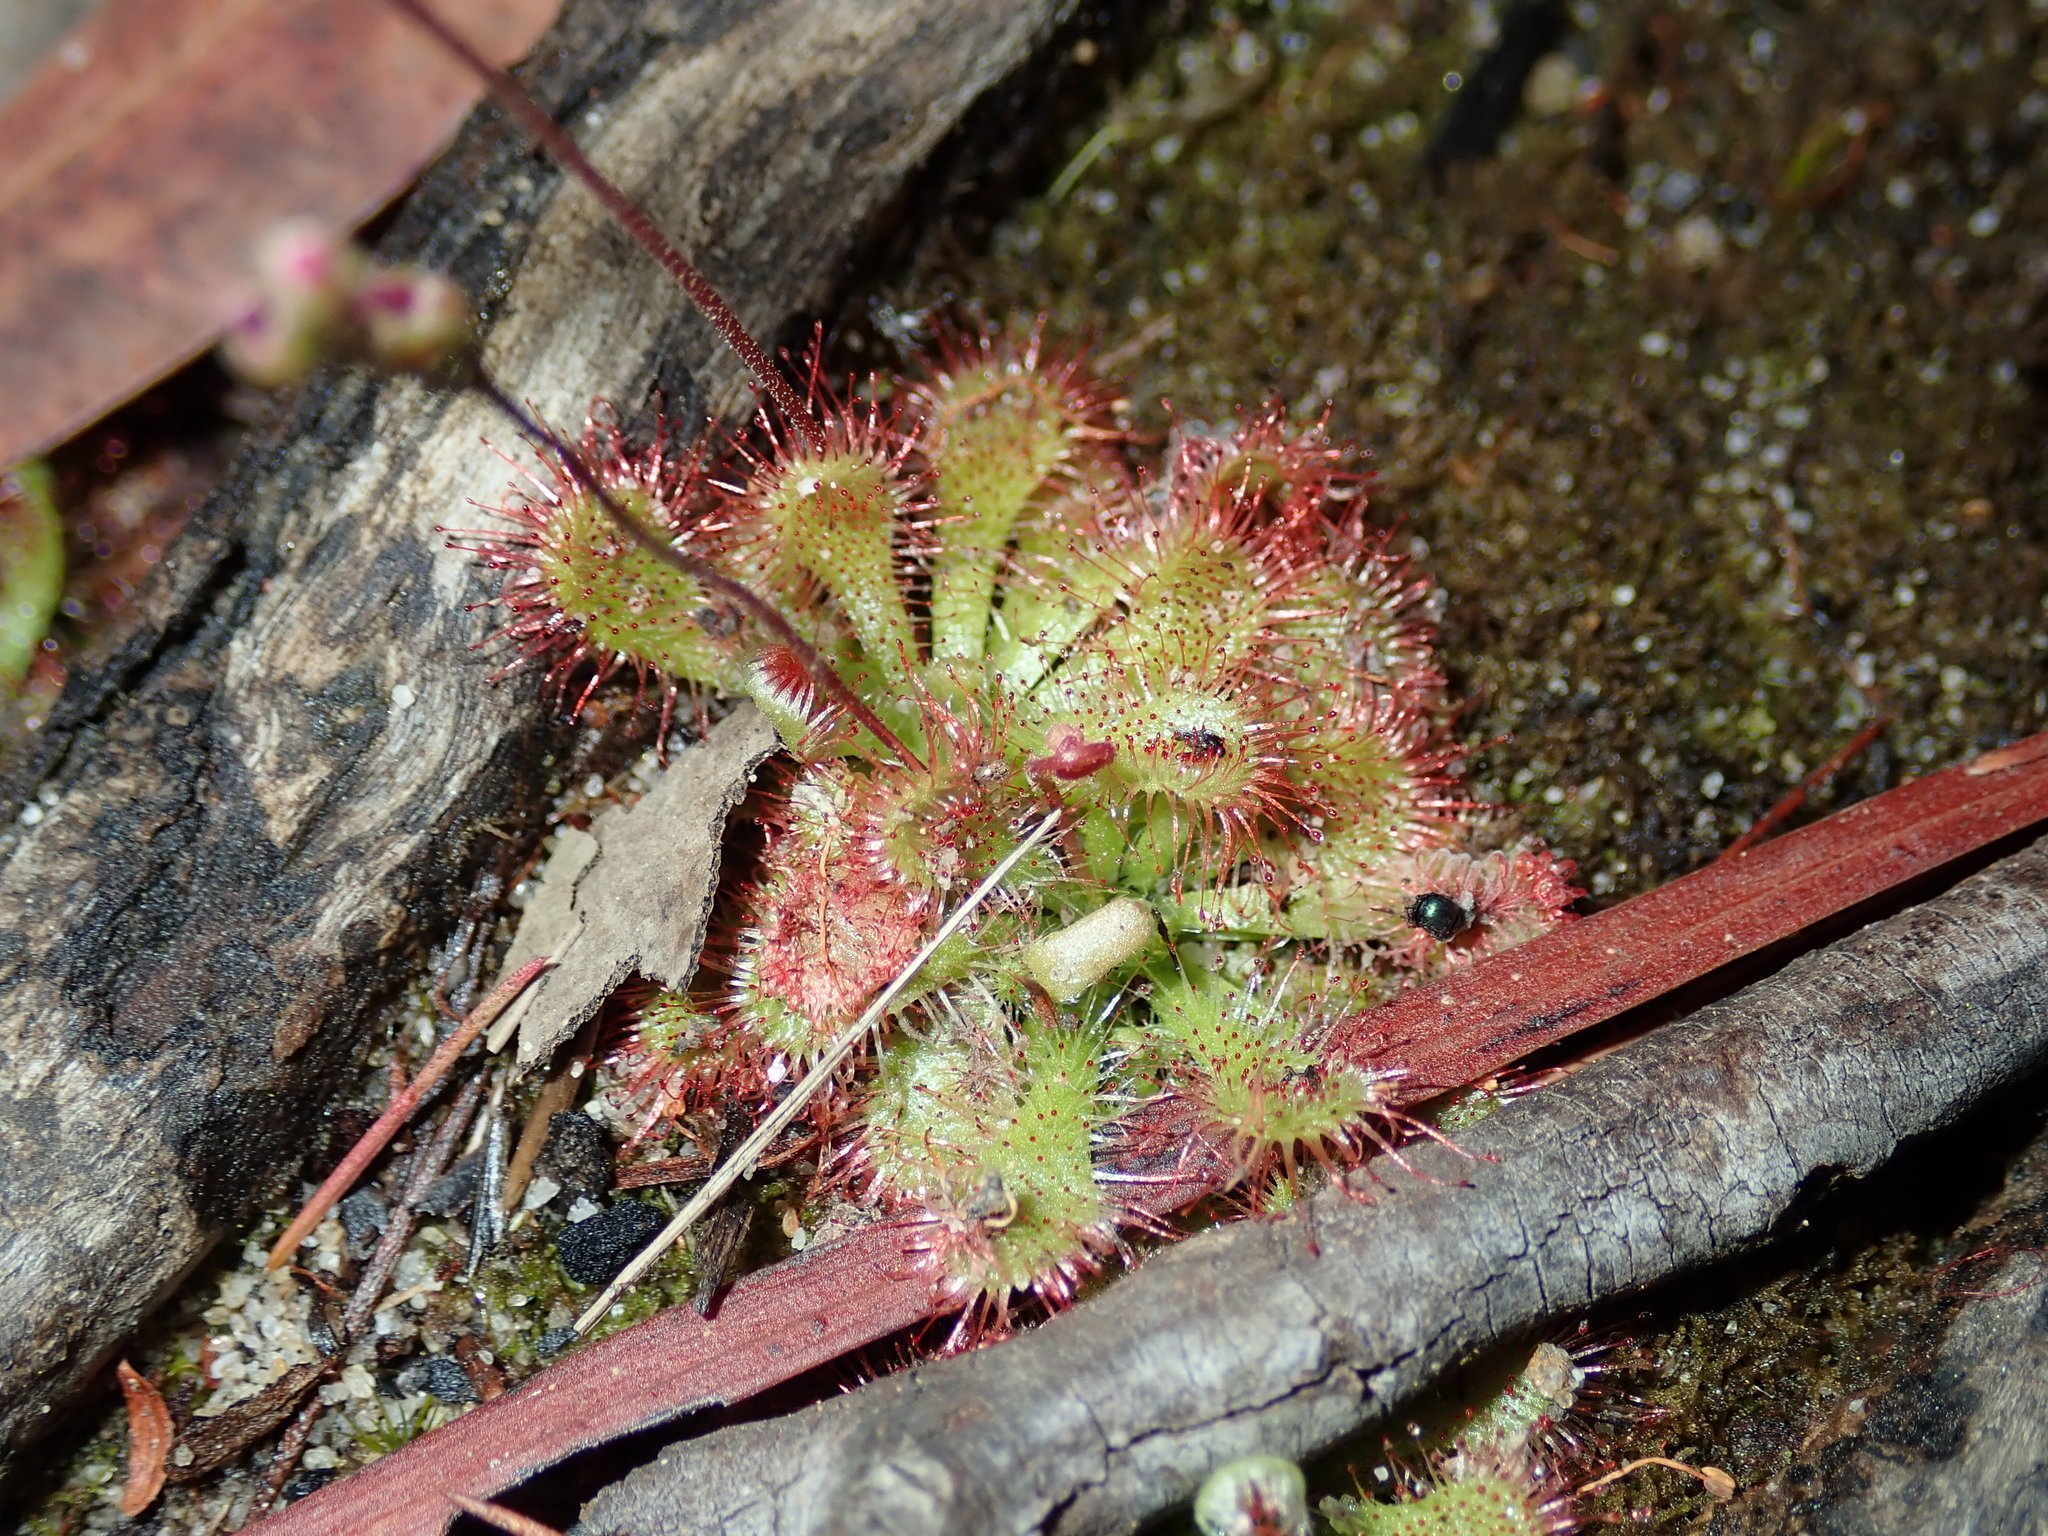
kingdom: Plantae
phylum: Tracheophyta
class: Magnoliopsida
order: Caryophyllales
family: Droseraceae
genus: Drosera
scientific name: Drosera spatulata
